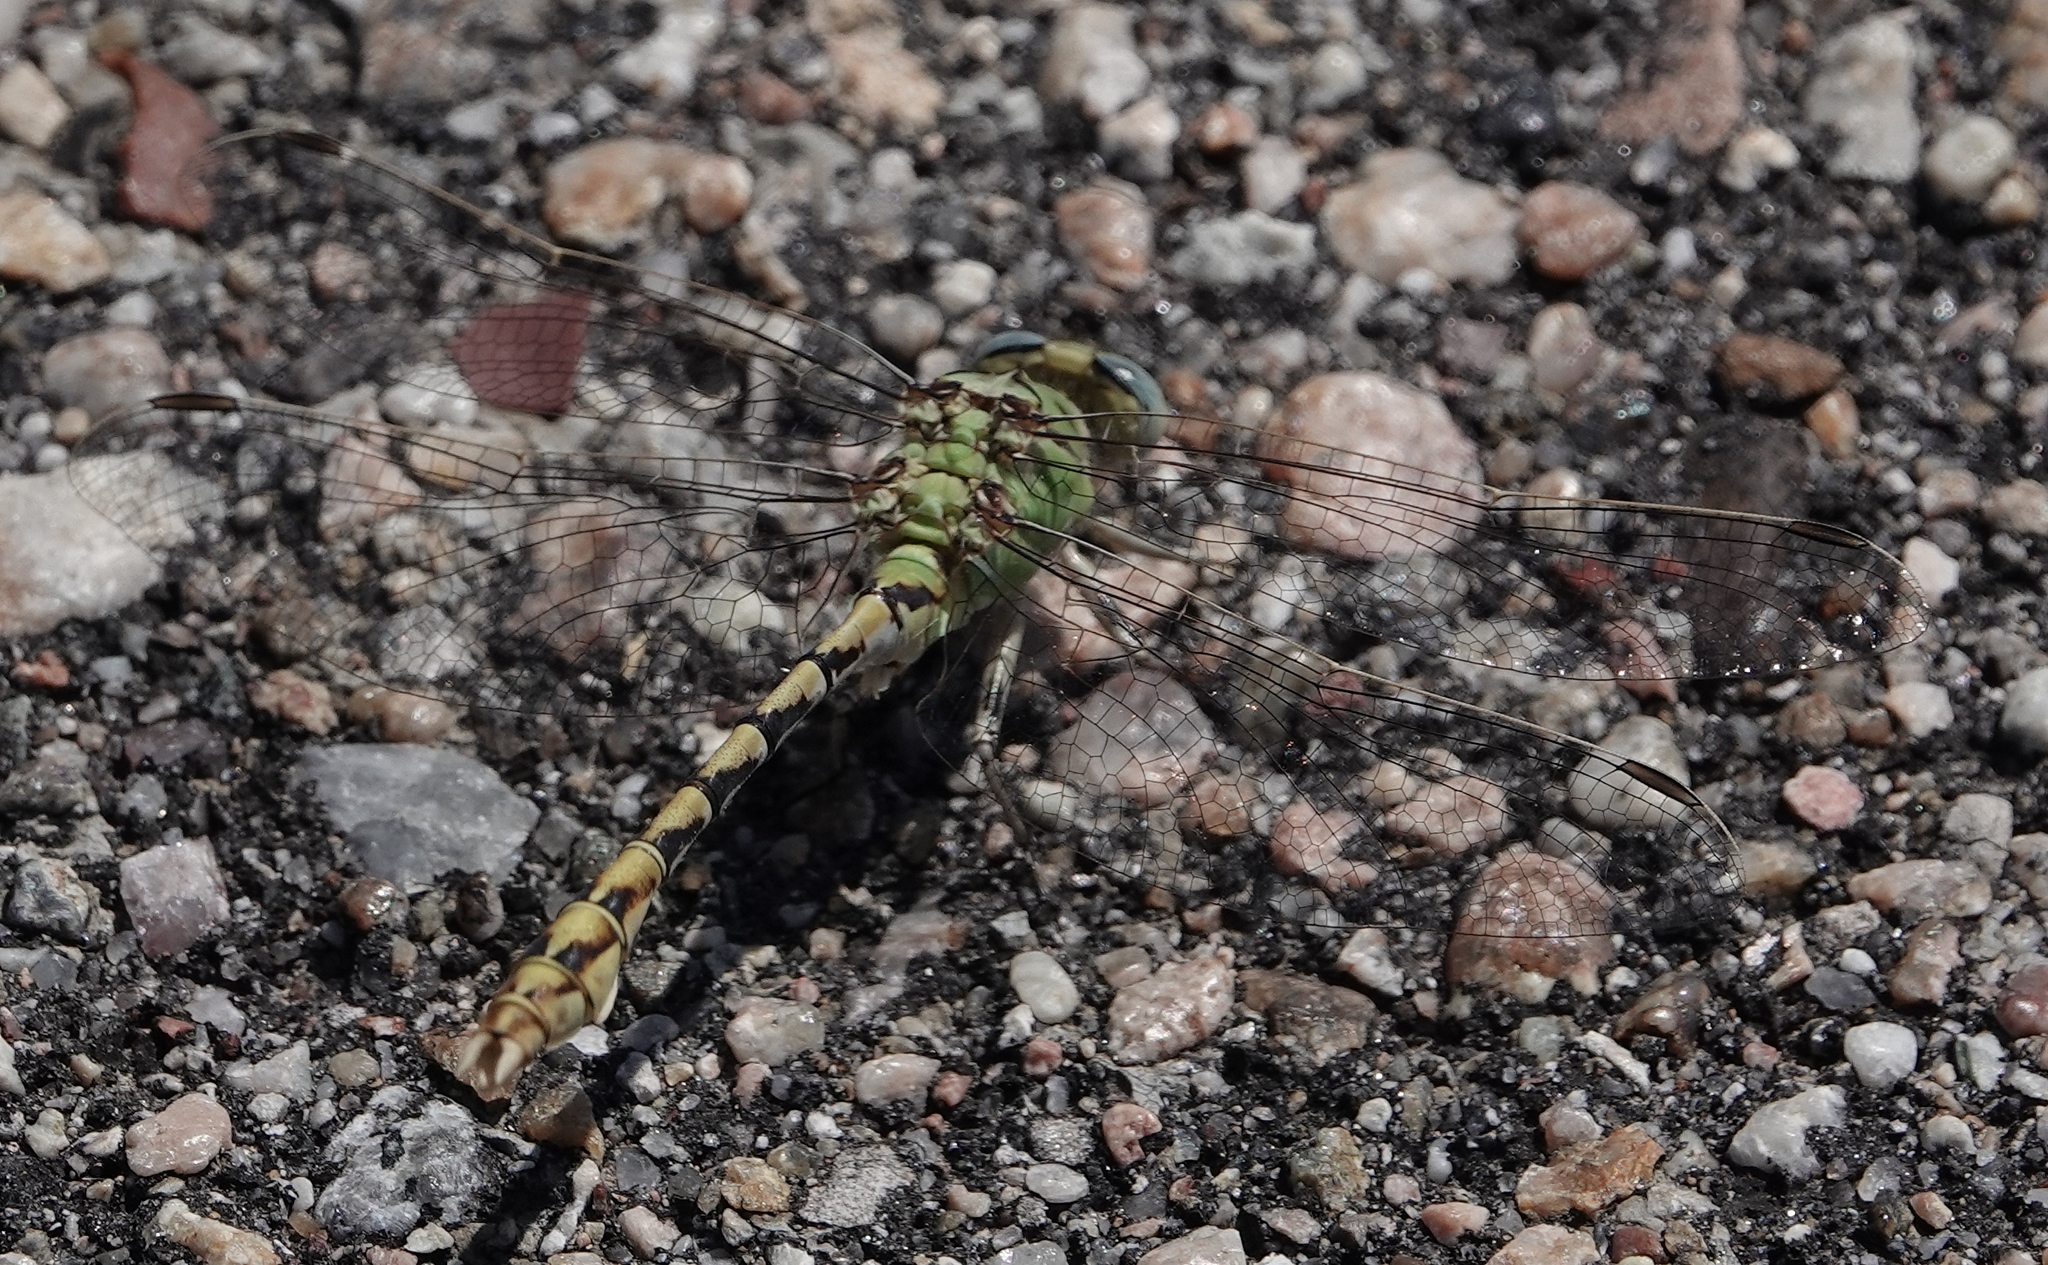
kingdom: Animalia
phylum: Arthropoda
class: Insecta
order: Odonata
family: Gomphidae
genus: Ophiogomphus
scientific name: Ophiogomphus severus
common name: Pale snaketail
